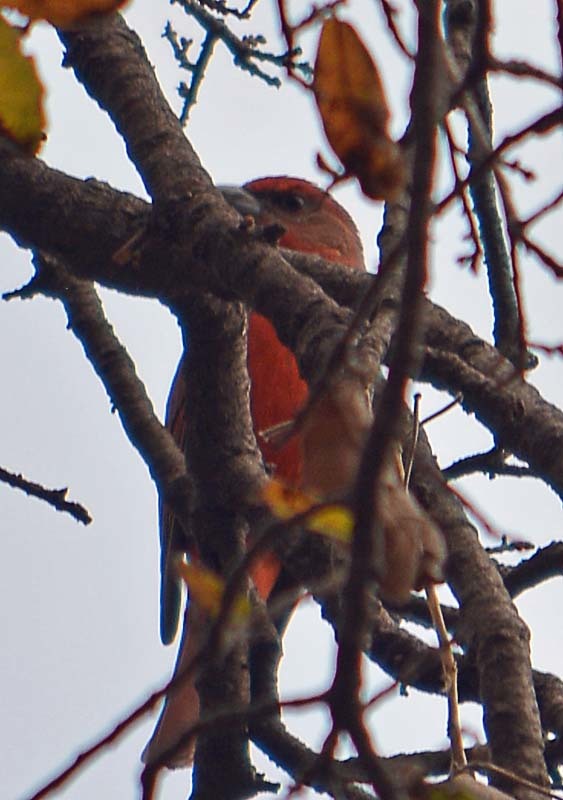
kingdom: Animalia
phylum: Chordata
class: Aves
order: Passeriformes
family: Cardinalidae
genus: Piranga
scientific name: Piranga bidentata
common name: Flame-colored tanager
